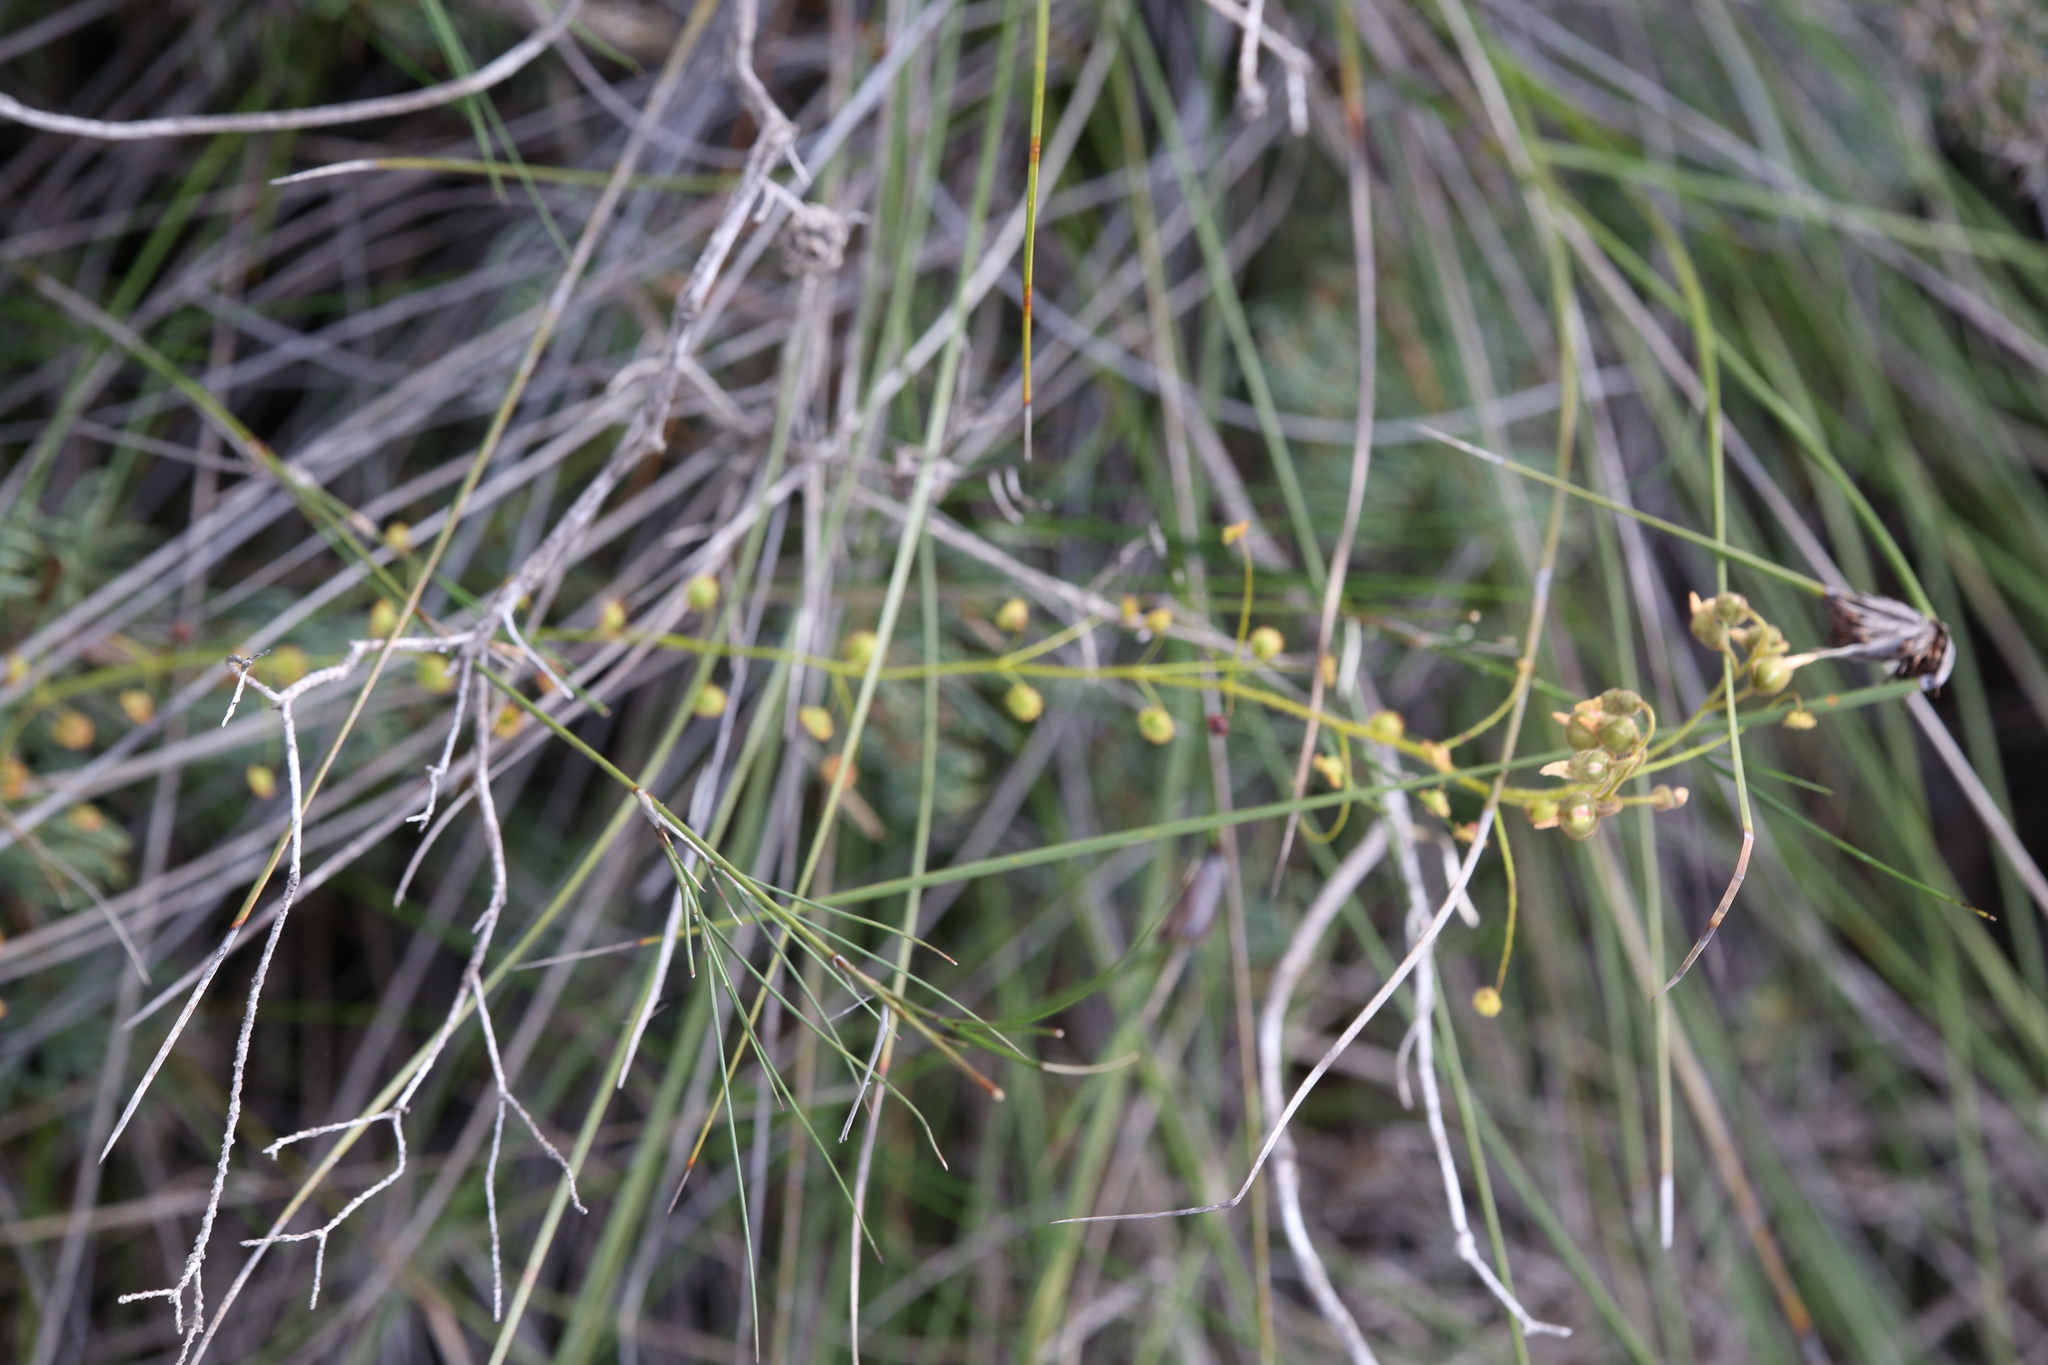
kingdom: Plantae
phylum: Tracheophyta
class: Magnoliopsida
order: Caryophyllales
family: Droseraceae
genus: Drosera
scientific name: Drosera macrantha
